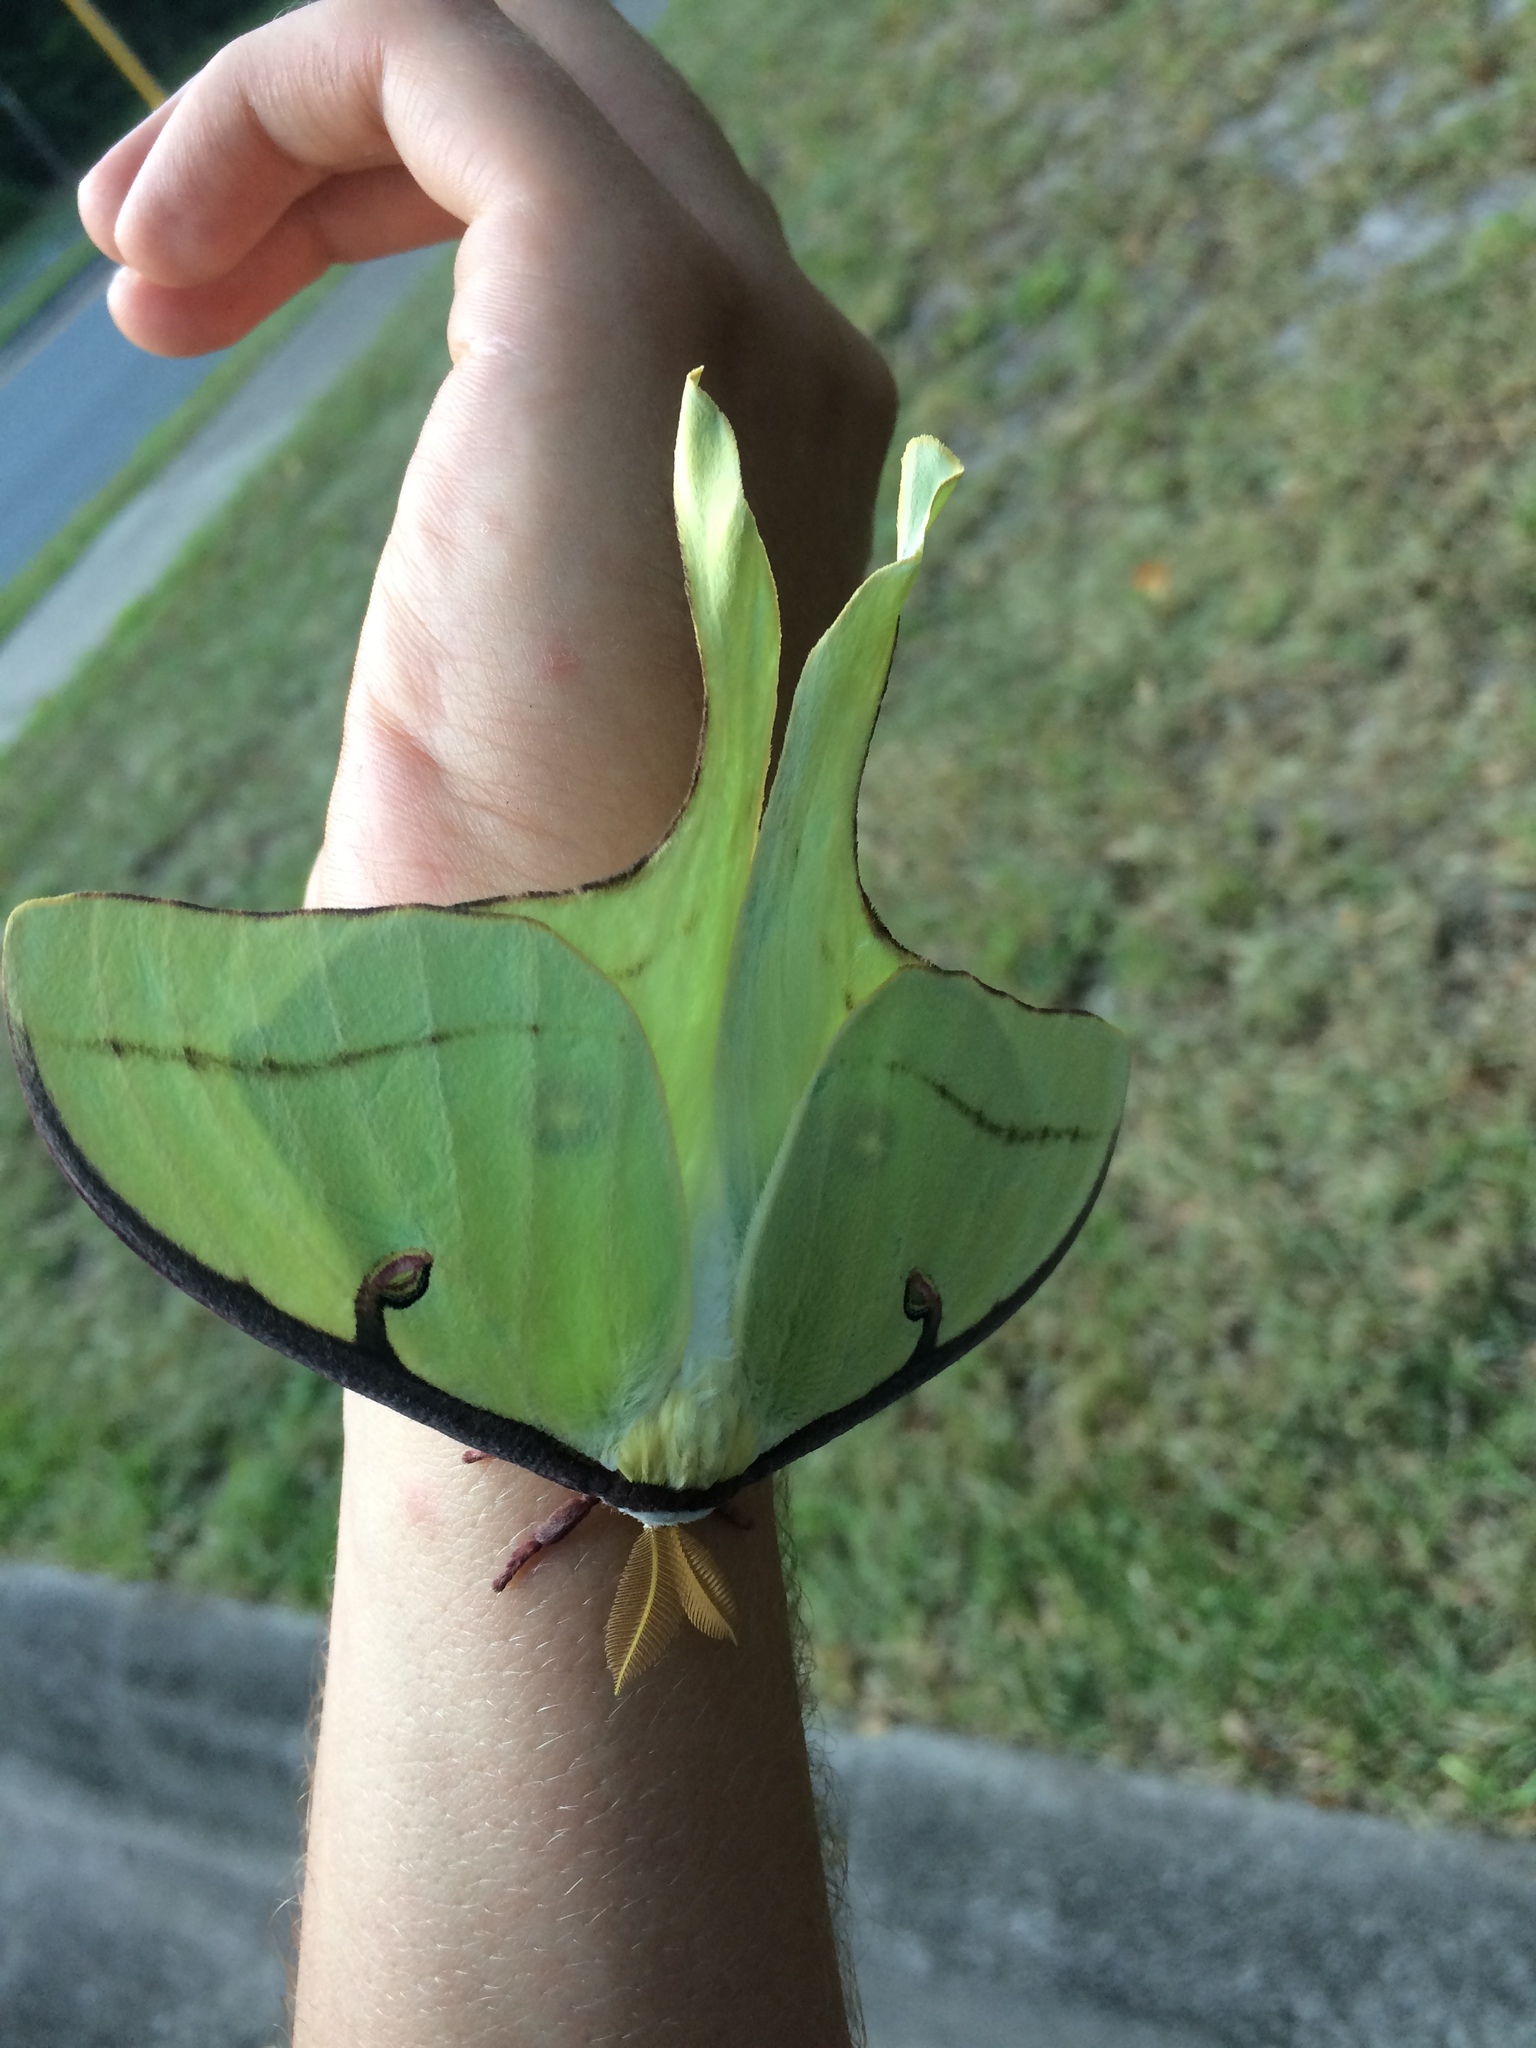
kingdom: Animalia
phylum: Arthropoda
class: Insecta
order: Lepidoptera
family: Saturniidae
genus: Actias
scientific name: Actias luna
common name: Luna moth
